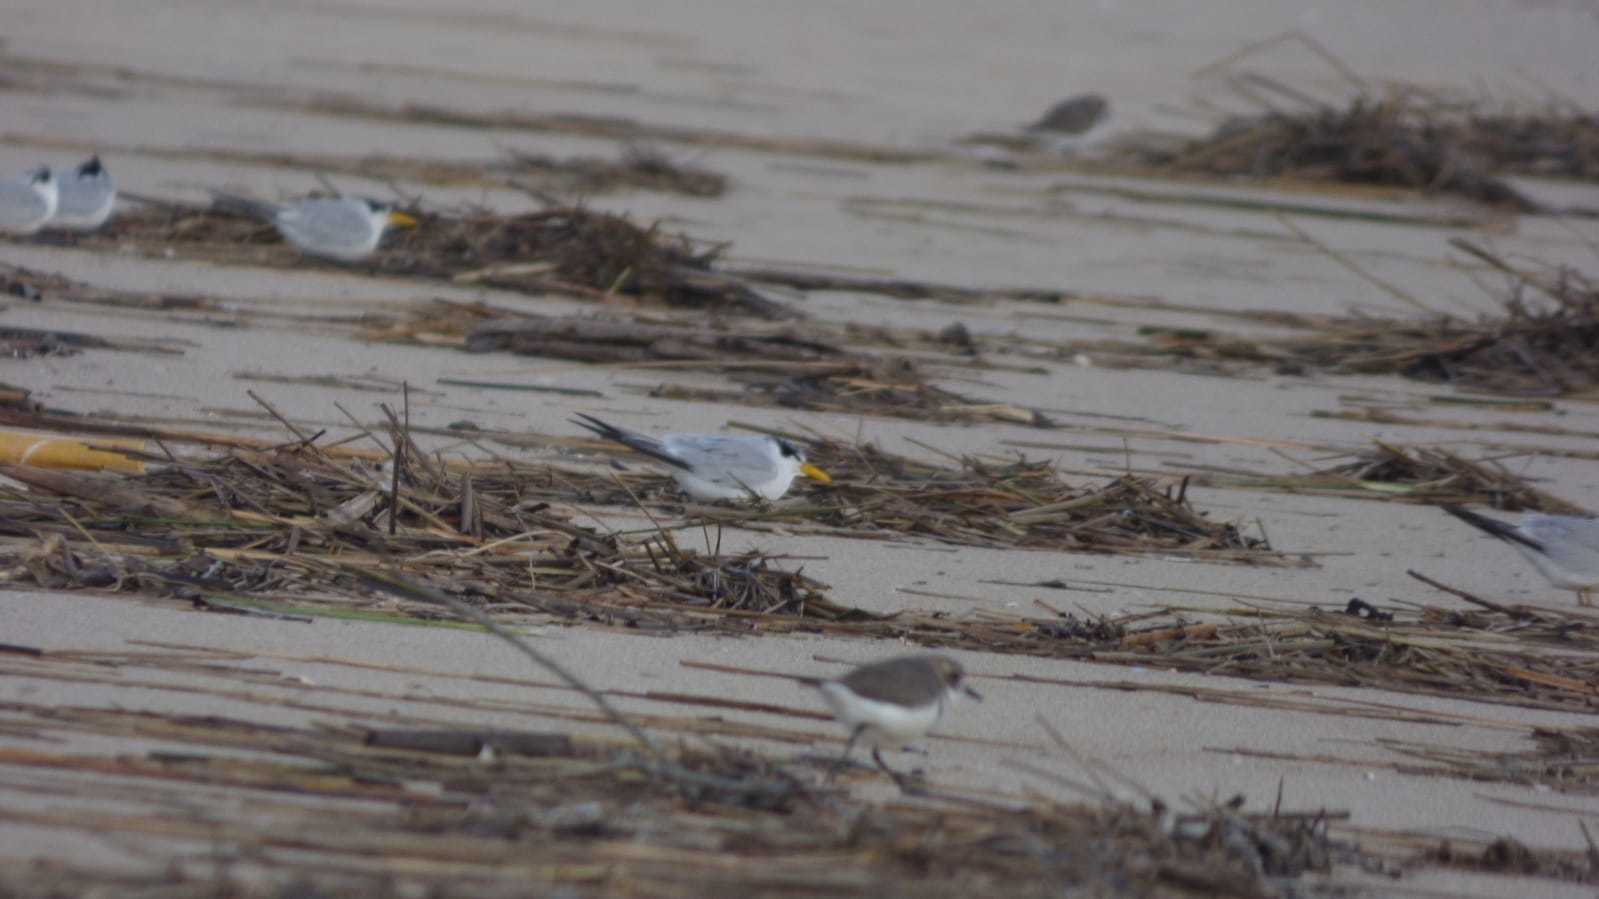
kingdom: Animalia
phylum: Chordata
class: Aves
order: Charadriiformes
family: Laridae
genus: Sternula
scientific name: Sternula superciliaris
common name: Yellow-billed tern
